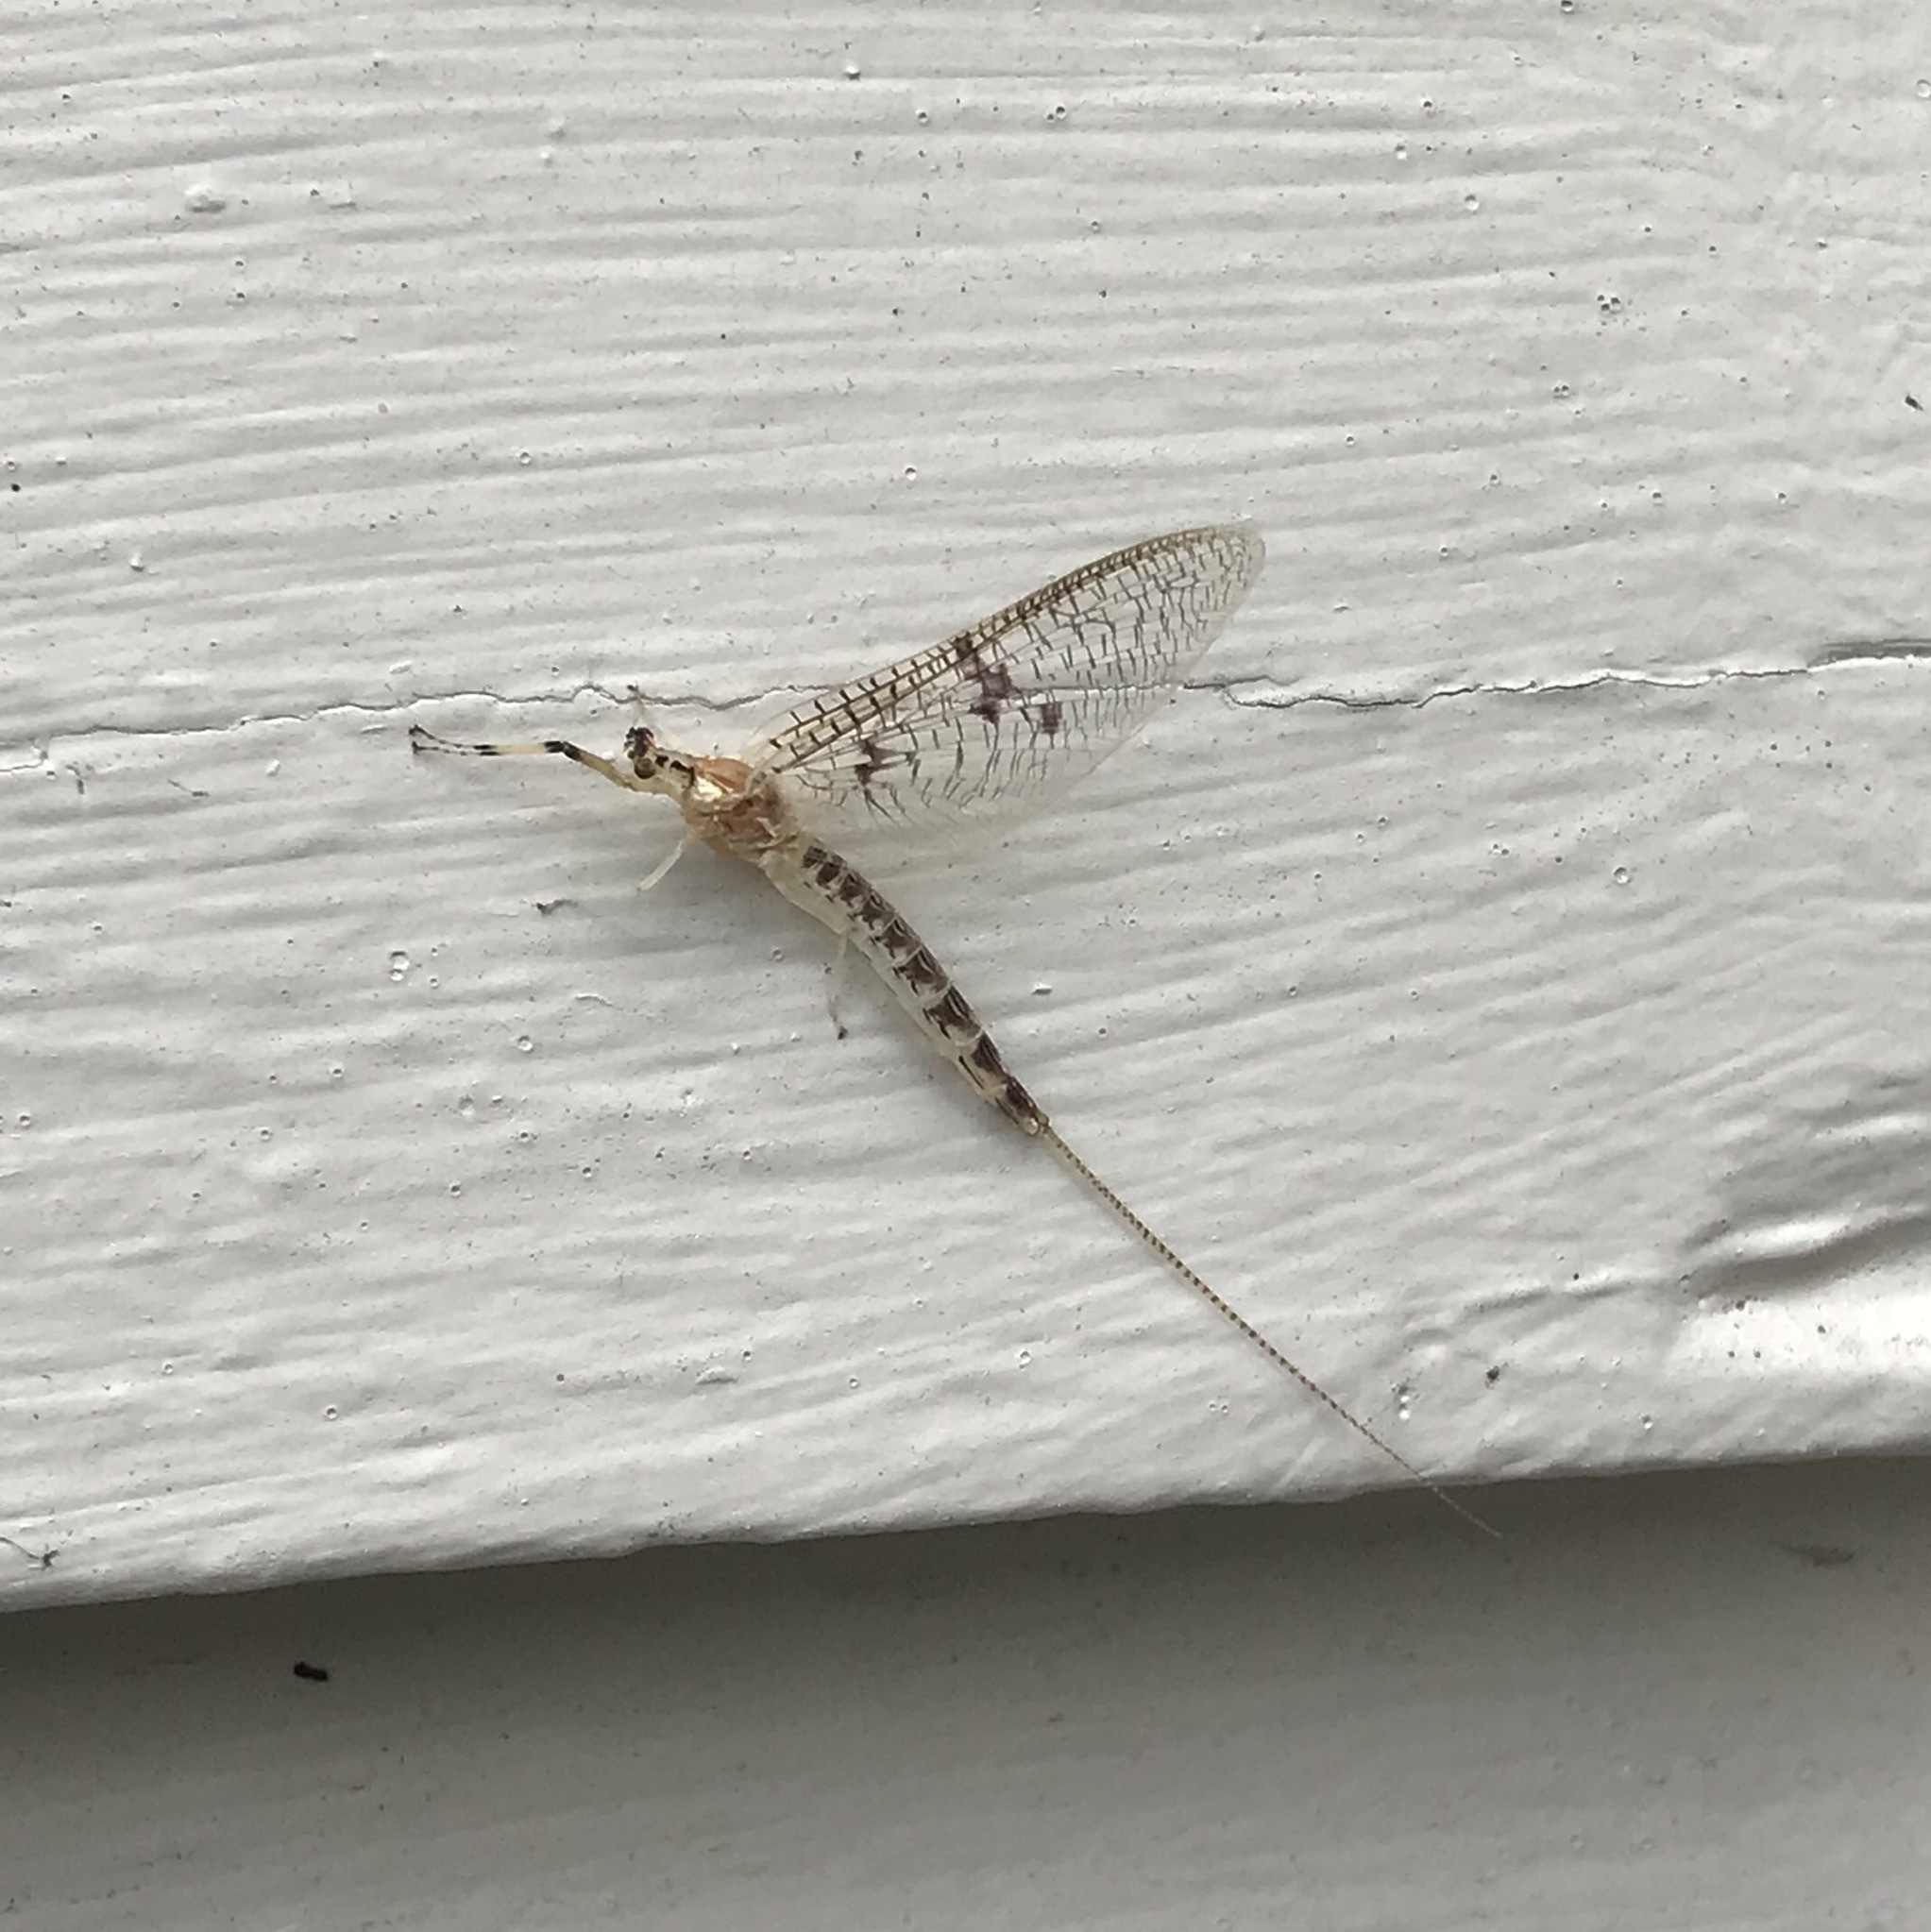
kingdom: Animalia
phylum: Arthropoda
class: Insecta
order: Ephemeroptera
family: Ephemeridae
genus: Ephemera
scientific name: Ephemera varia
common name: Yellow drake
